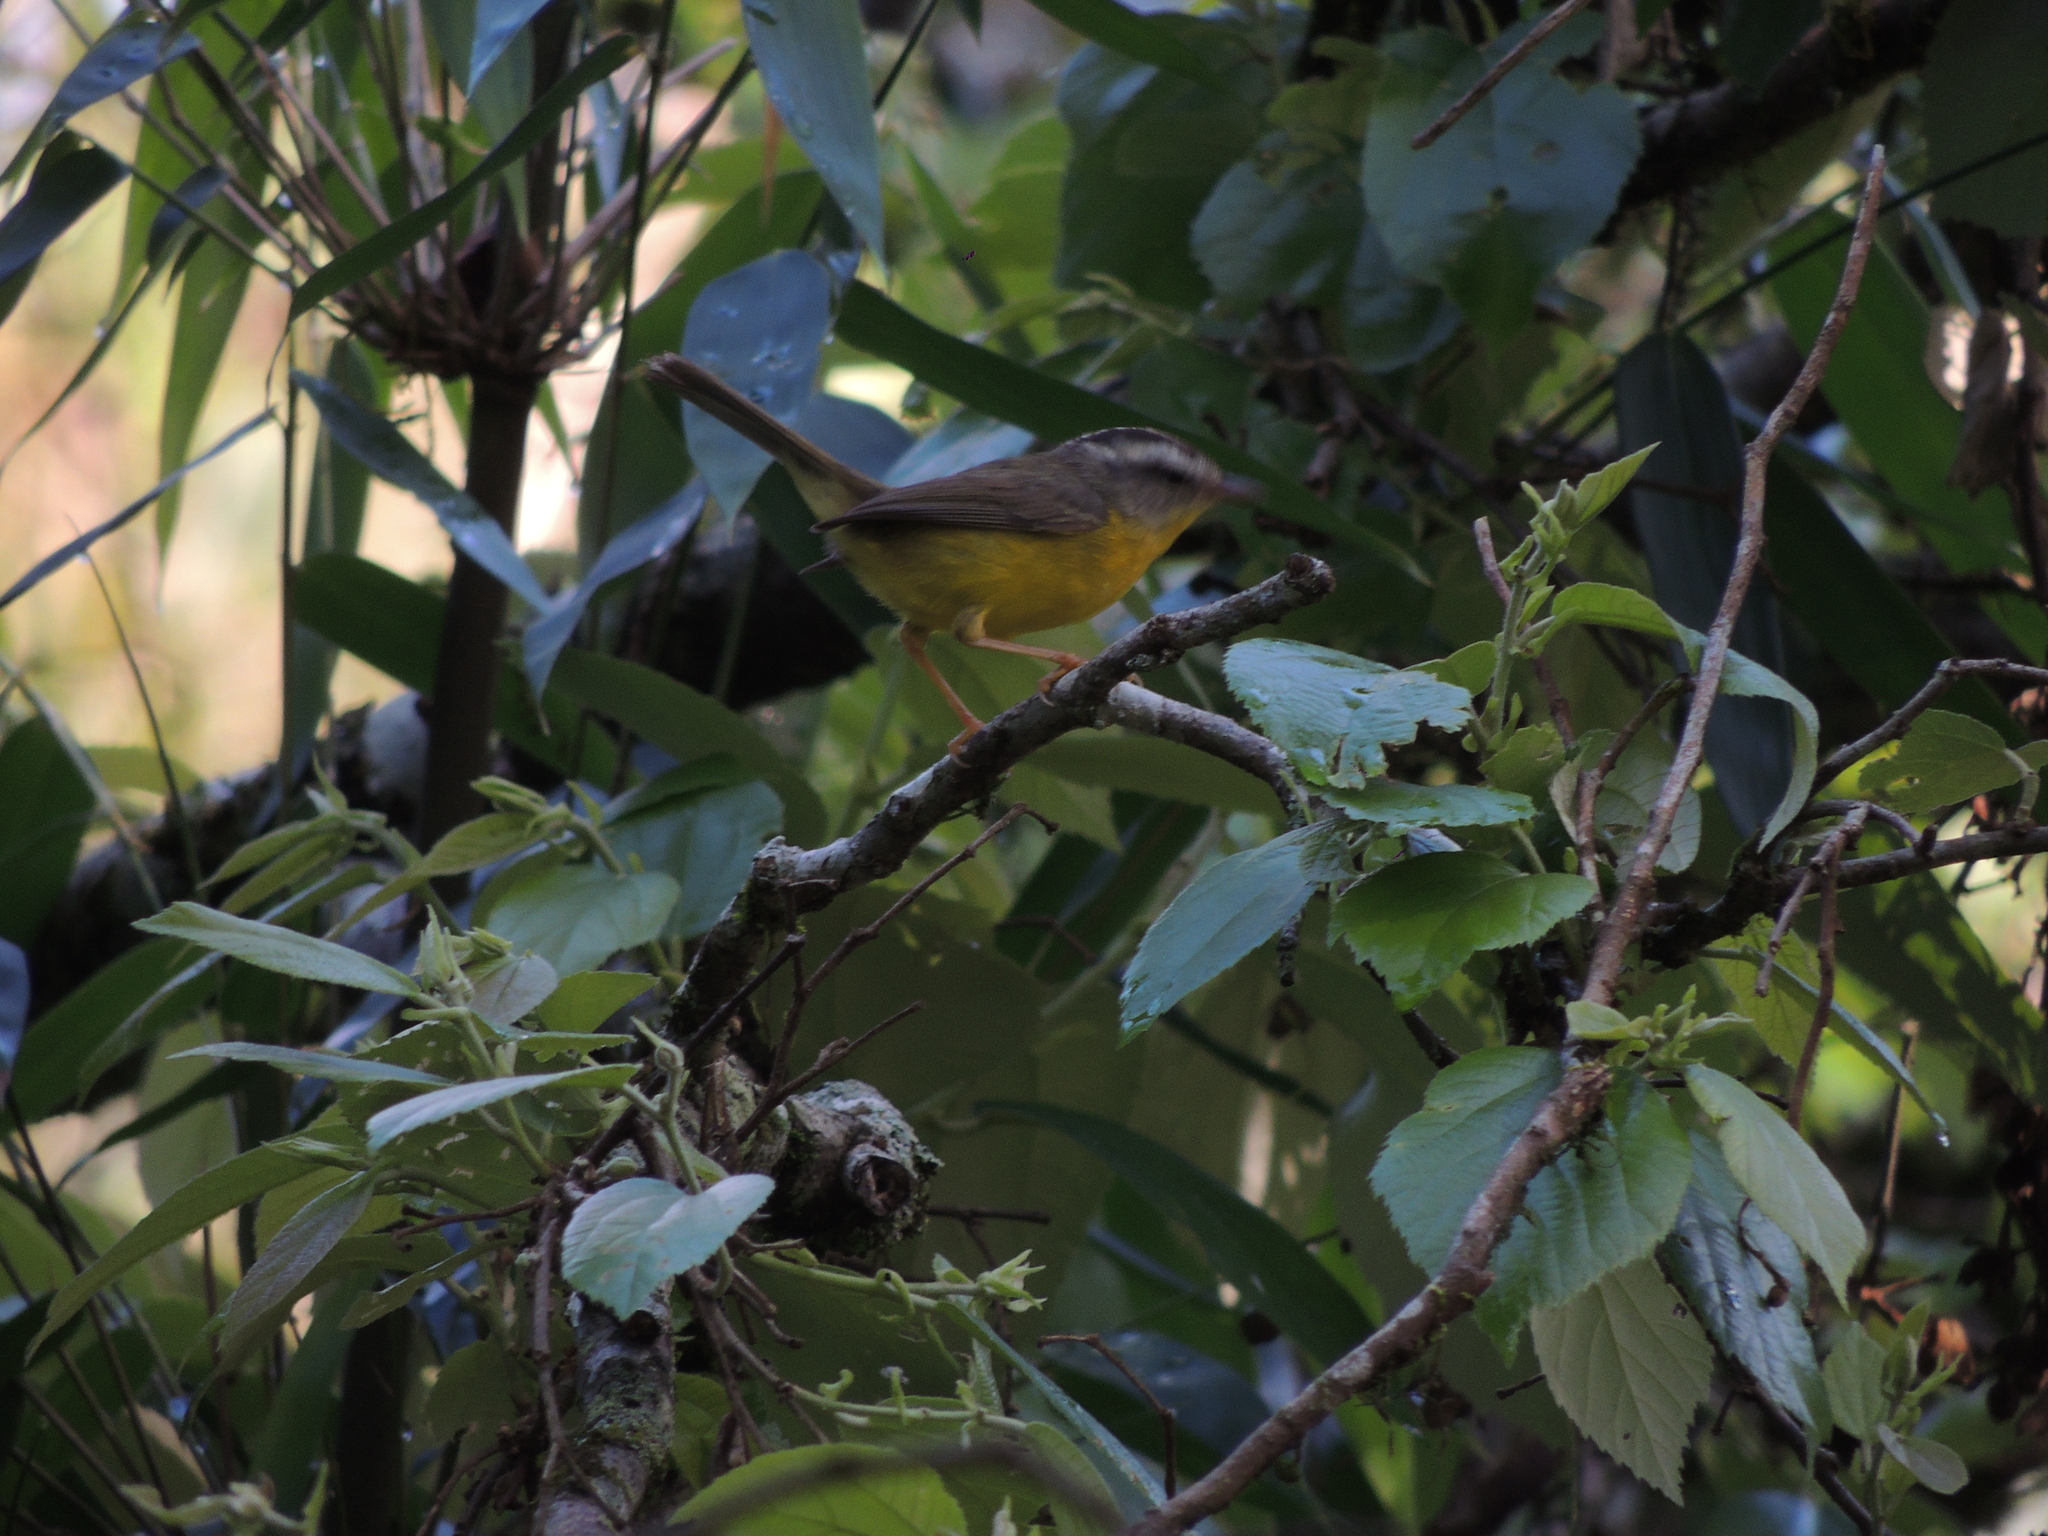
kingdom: Animalia
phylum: Chordata
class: Aves
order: Passeriformes
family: Parulidae
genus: Basileuterus
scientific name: Basileuterus culicivorus
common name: Golden-crowned warbler
